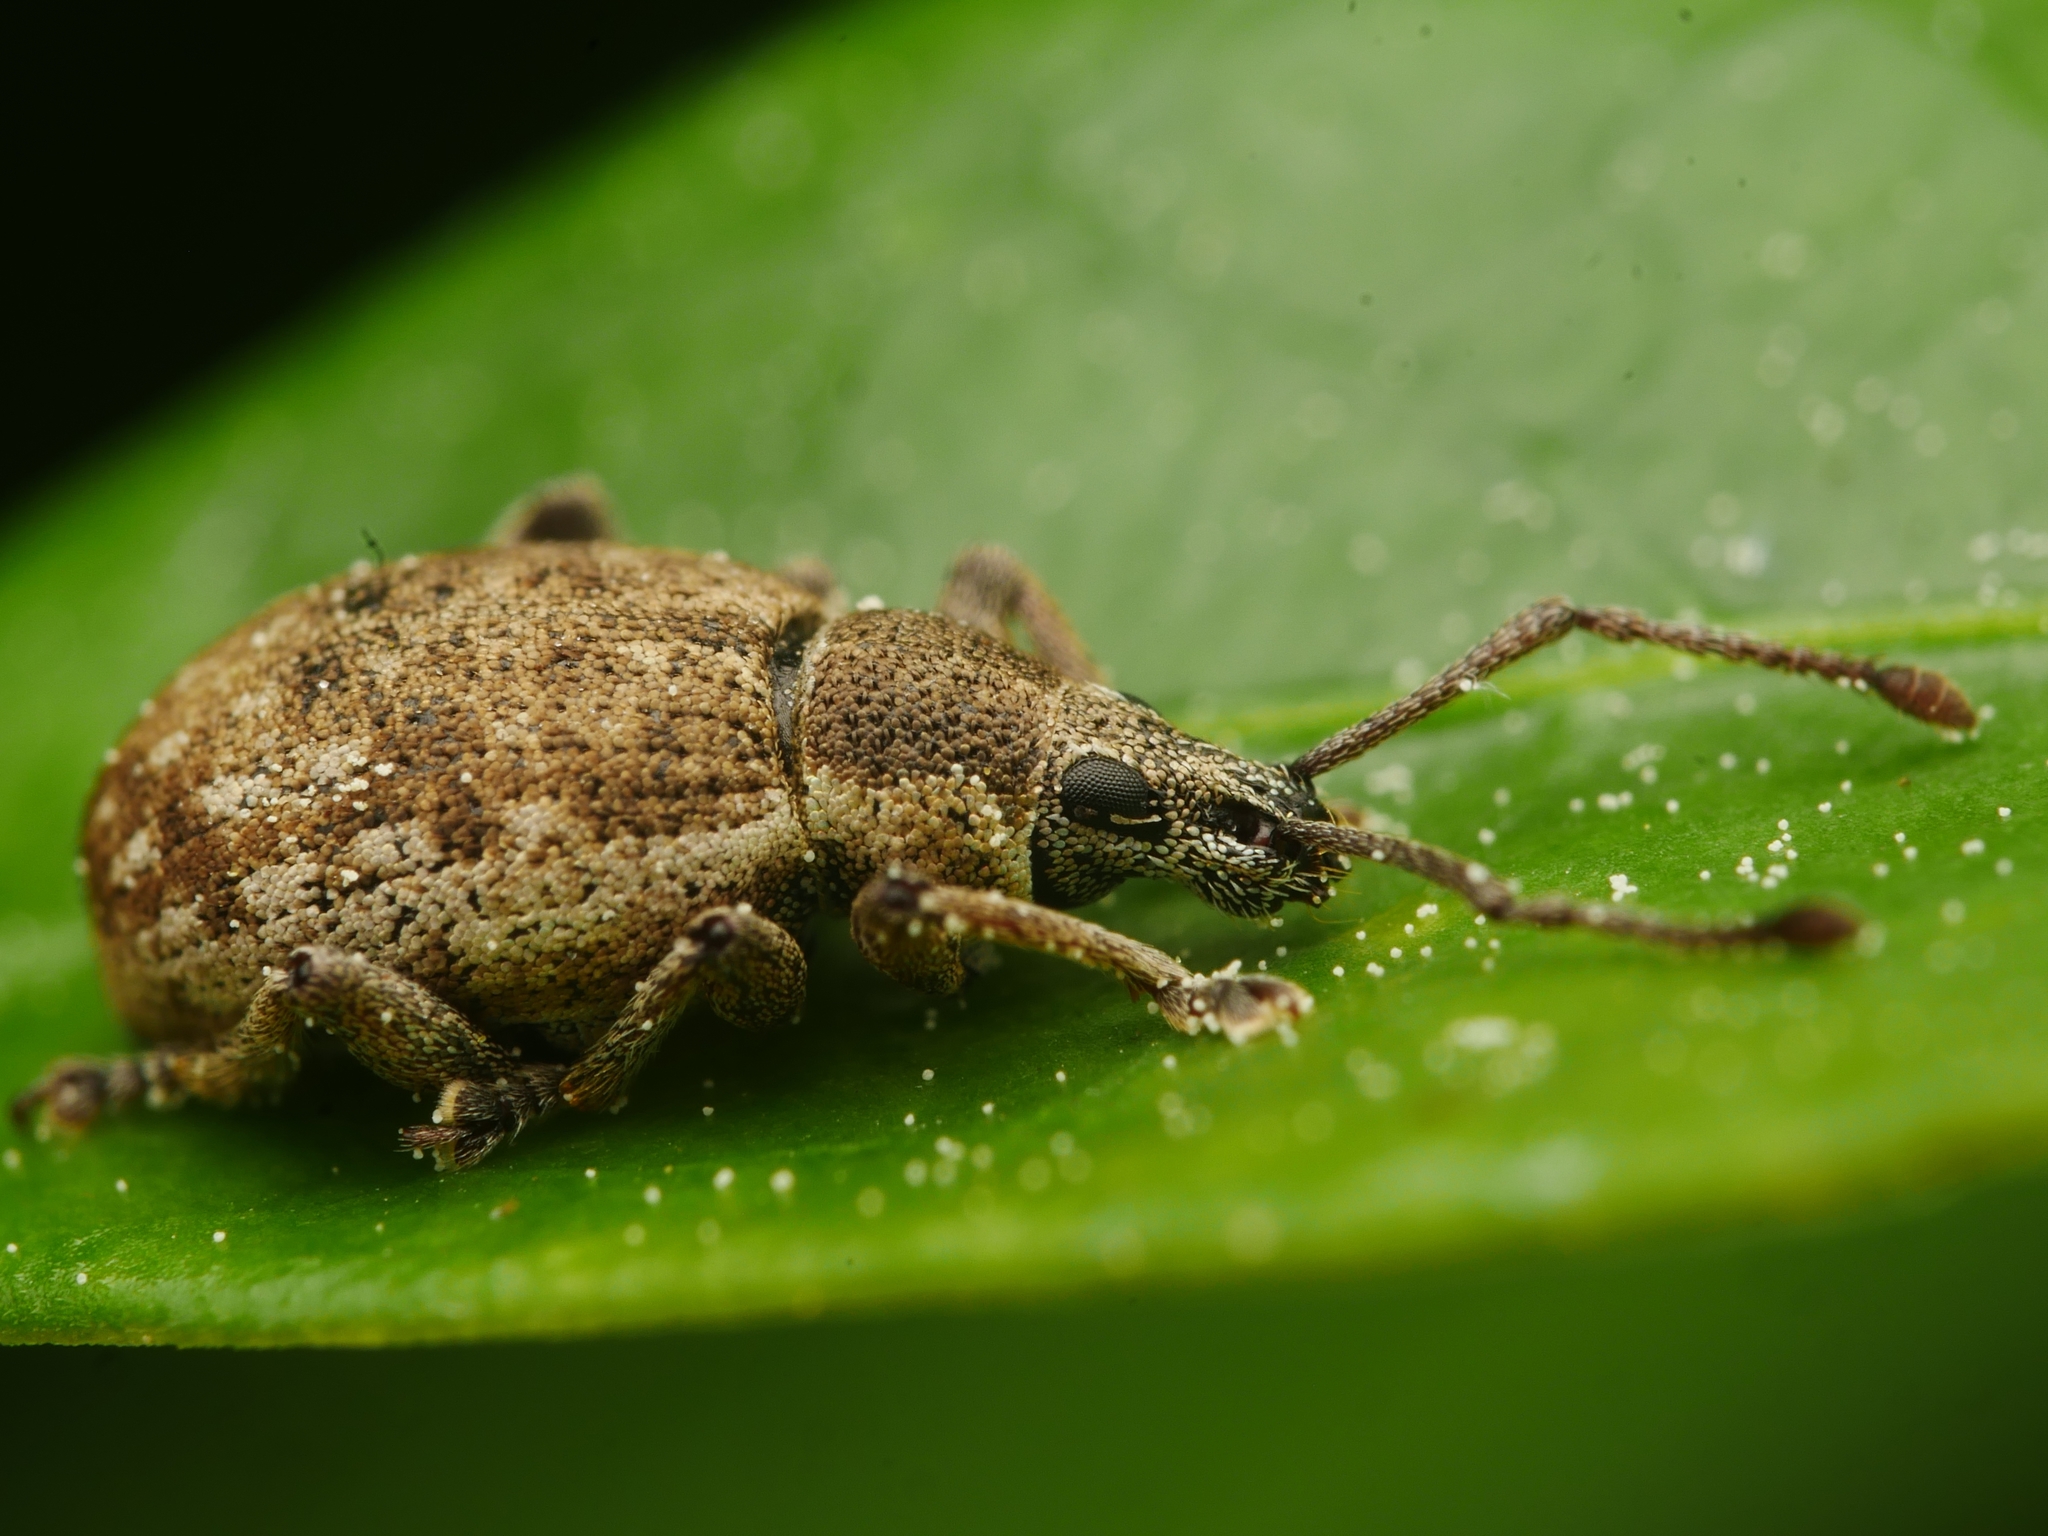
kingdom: Animalia
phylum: Arthropoda
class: Insecta
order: Coleoptera
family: Curculionidae
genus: Peritelus
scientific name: Peritelus sphaeroides
